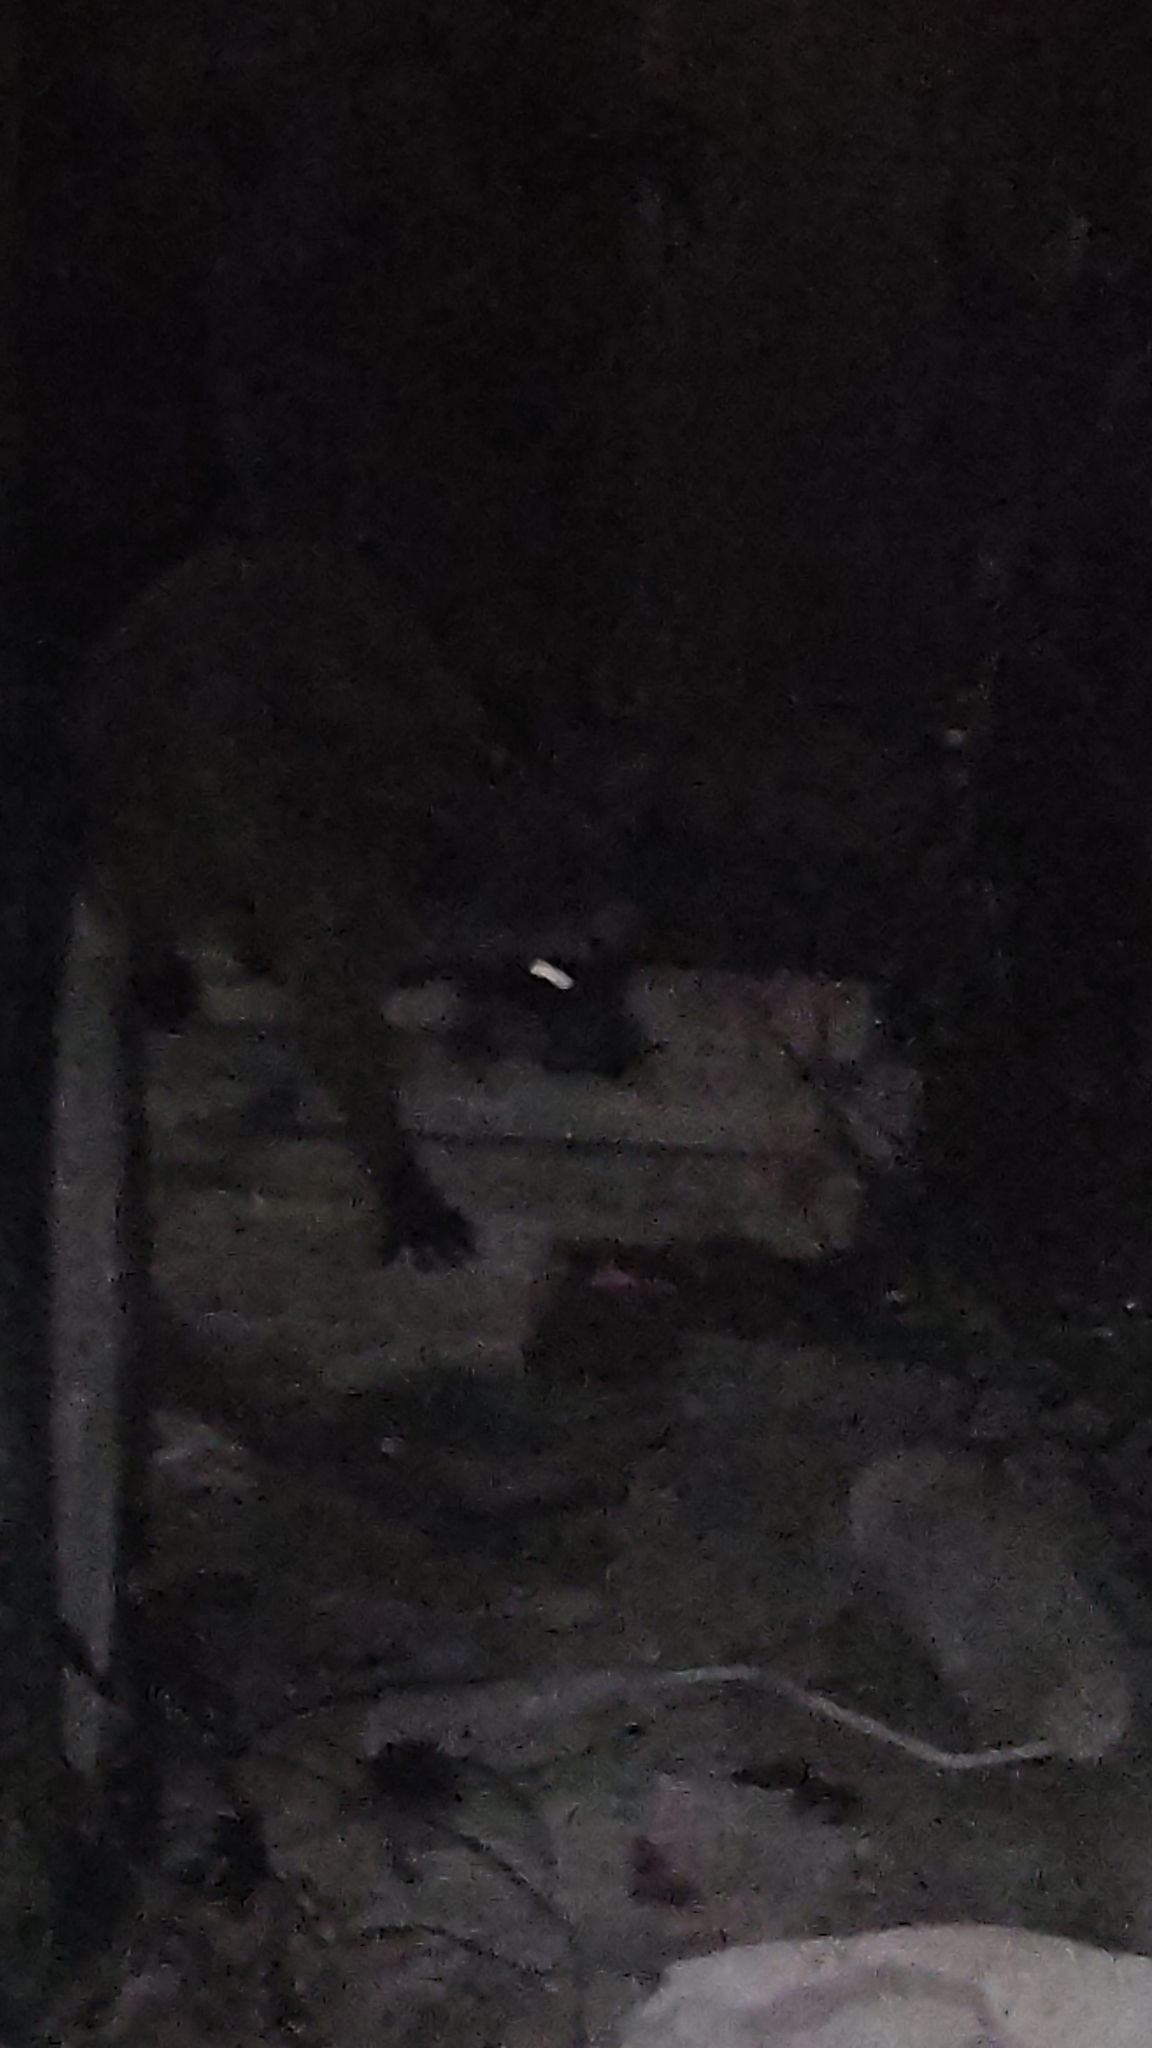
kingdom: Animalia
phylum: Chordata
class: Mammalia
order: Carnivora
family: Procyonidae
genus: Procyon
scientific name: Procyon lotor
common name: Raccoon
